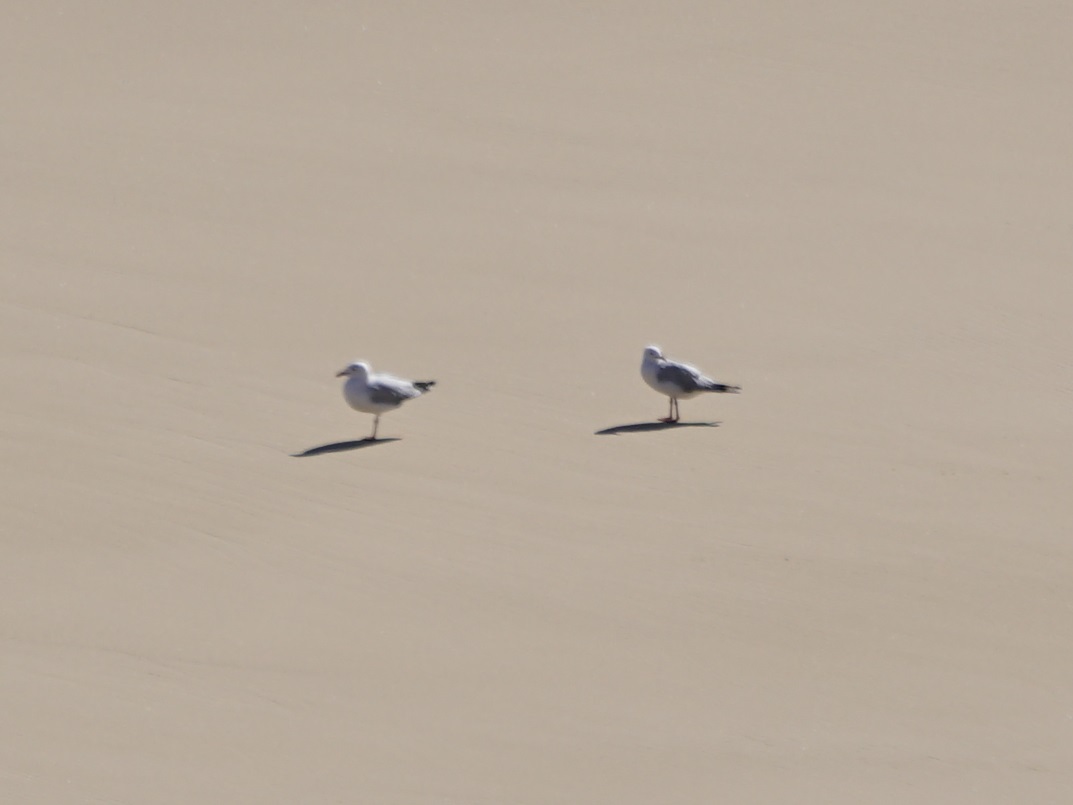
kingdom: Animalia
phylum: Chordata
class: Aves
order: Charadriiformes
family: Laridae
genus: Chroicocephalus
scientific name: Chroicocephalus novaehollandiae
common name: Silver gull
